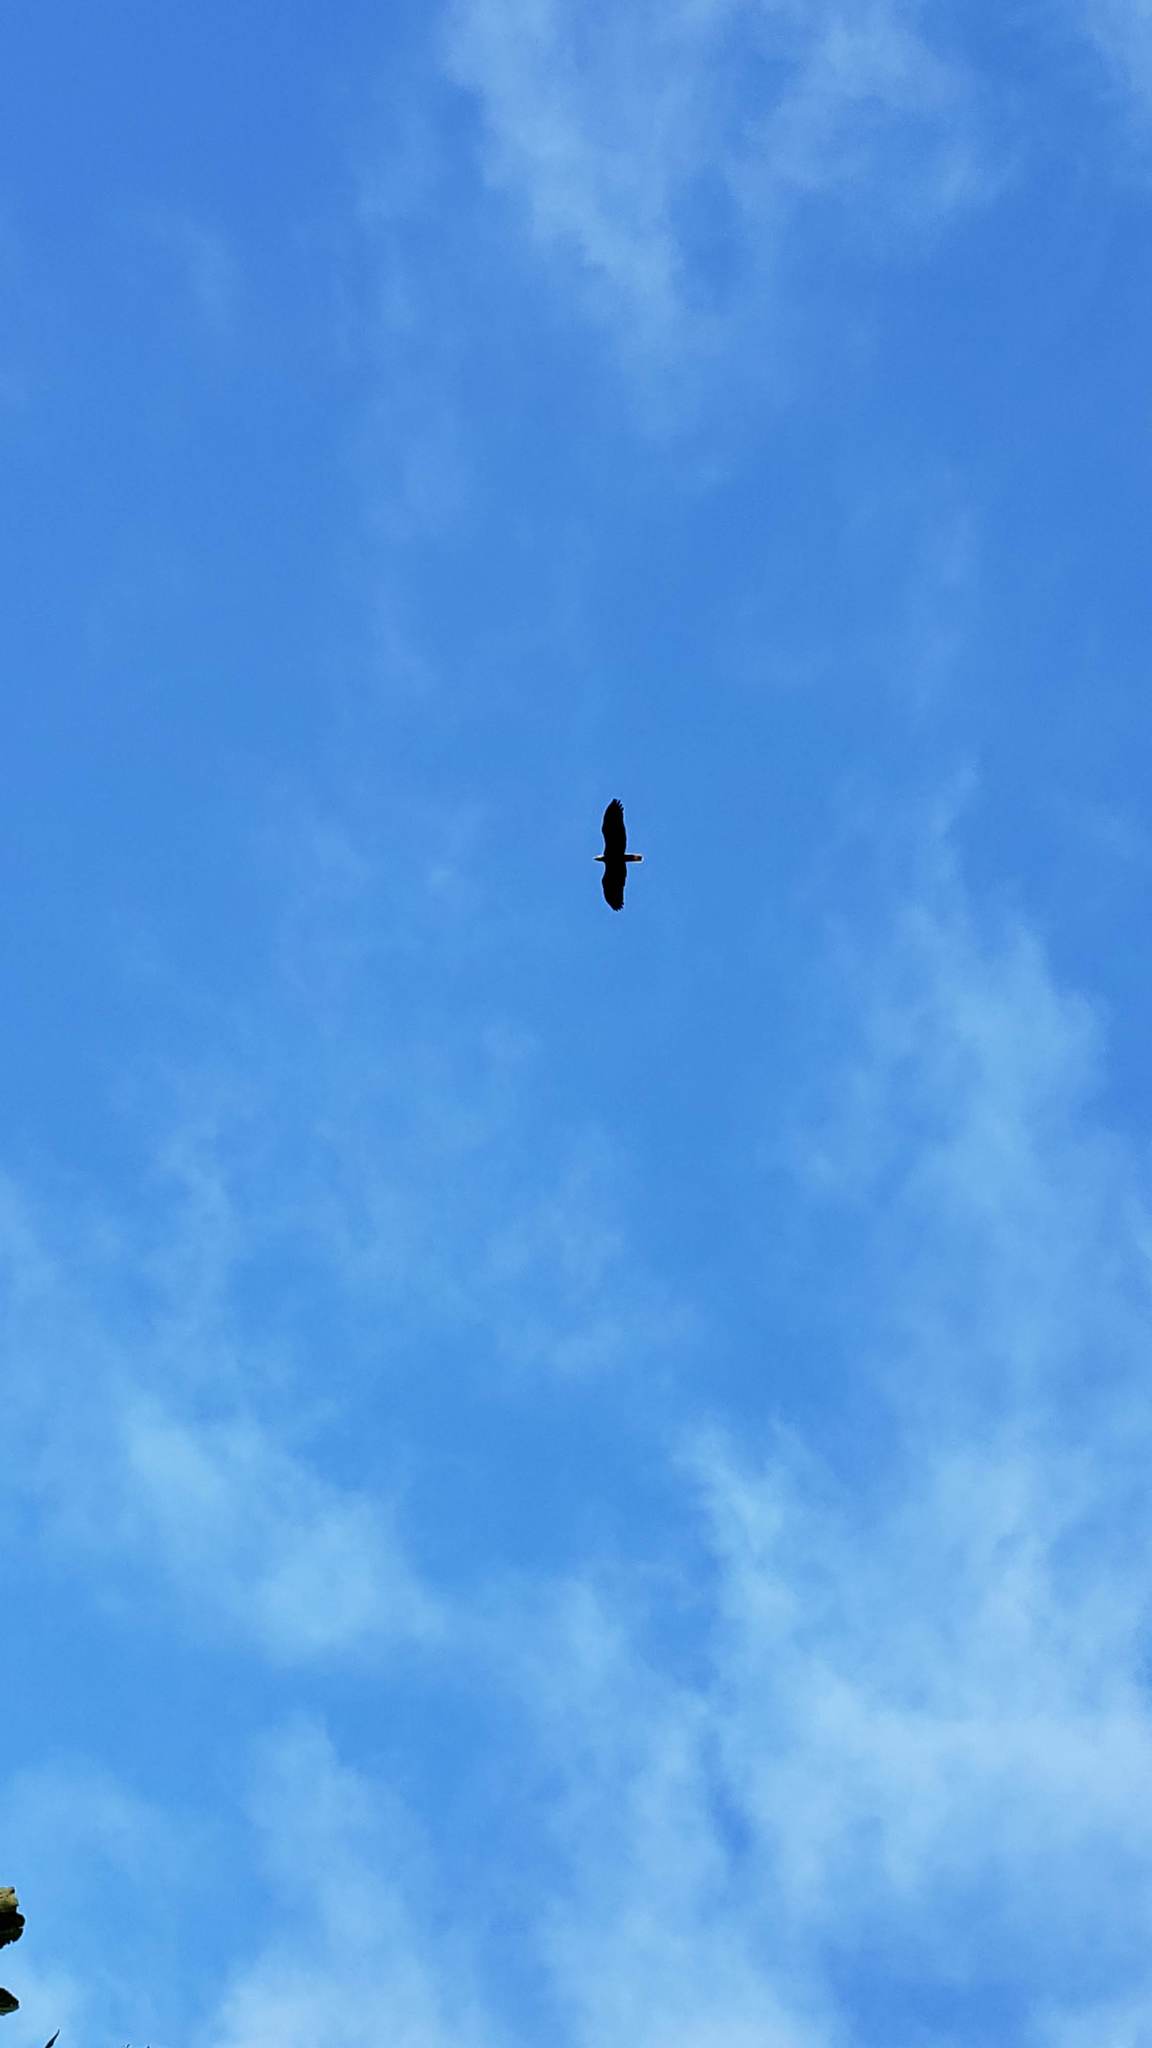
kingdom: Animalia
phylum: Chordata
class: Aves
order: Accipitriformes
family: Accipitridae
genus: Haliaeetus
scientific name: Haliaeetus leucocephalus
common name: Bald eagle
